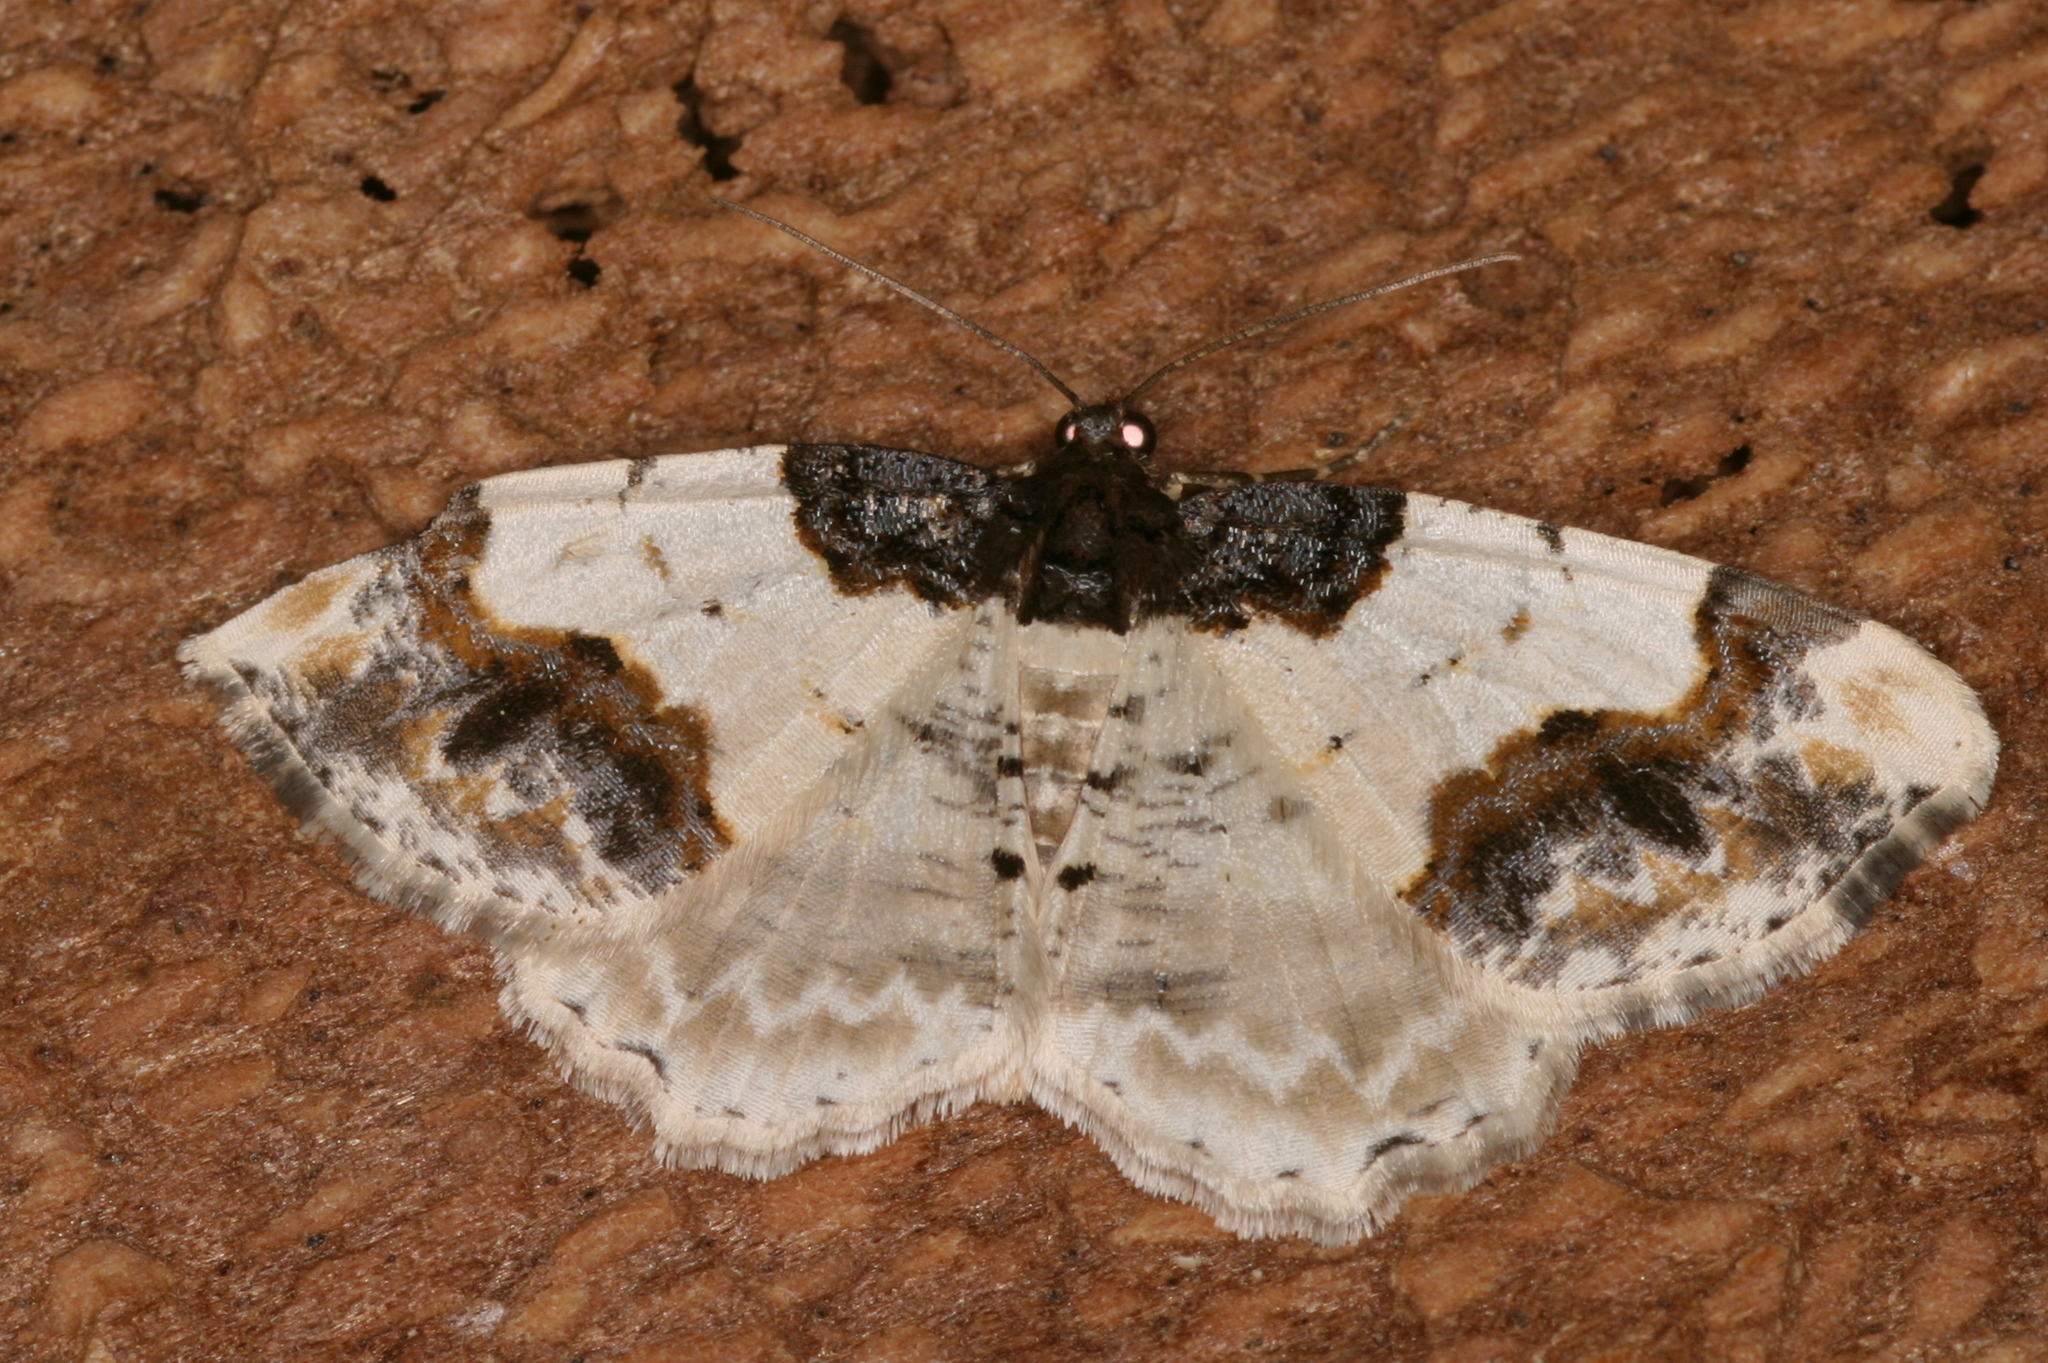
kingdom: Animalia
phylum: Arthropoda
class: Insecta
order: Lepidoptera
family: Geometridae
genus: Ligdia
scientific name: Ligdia adustata
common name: Scorched carpet
